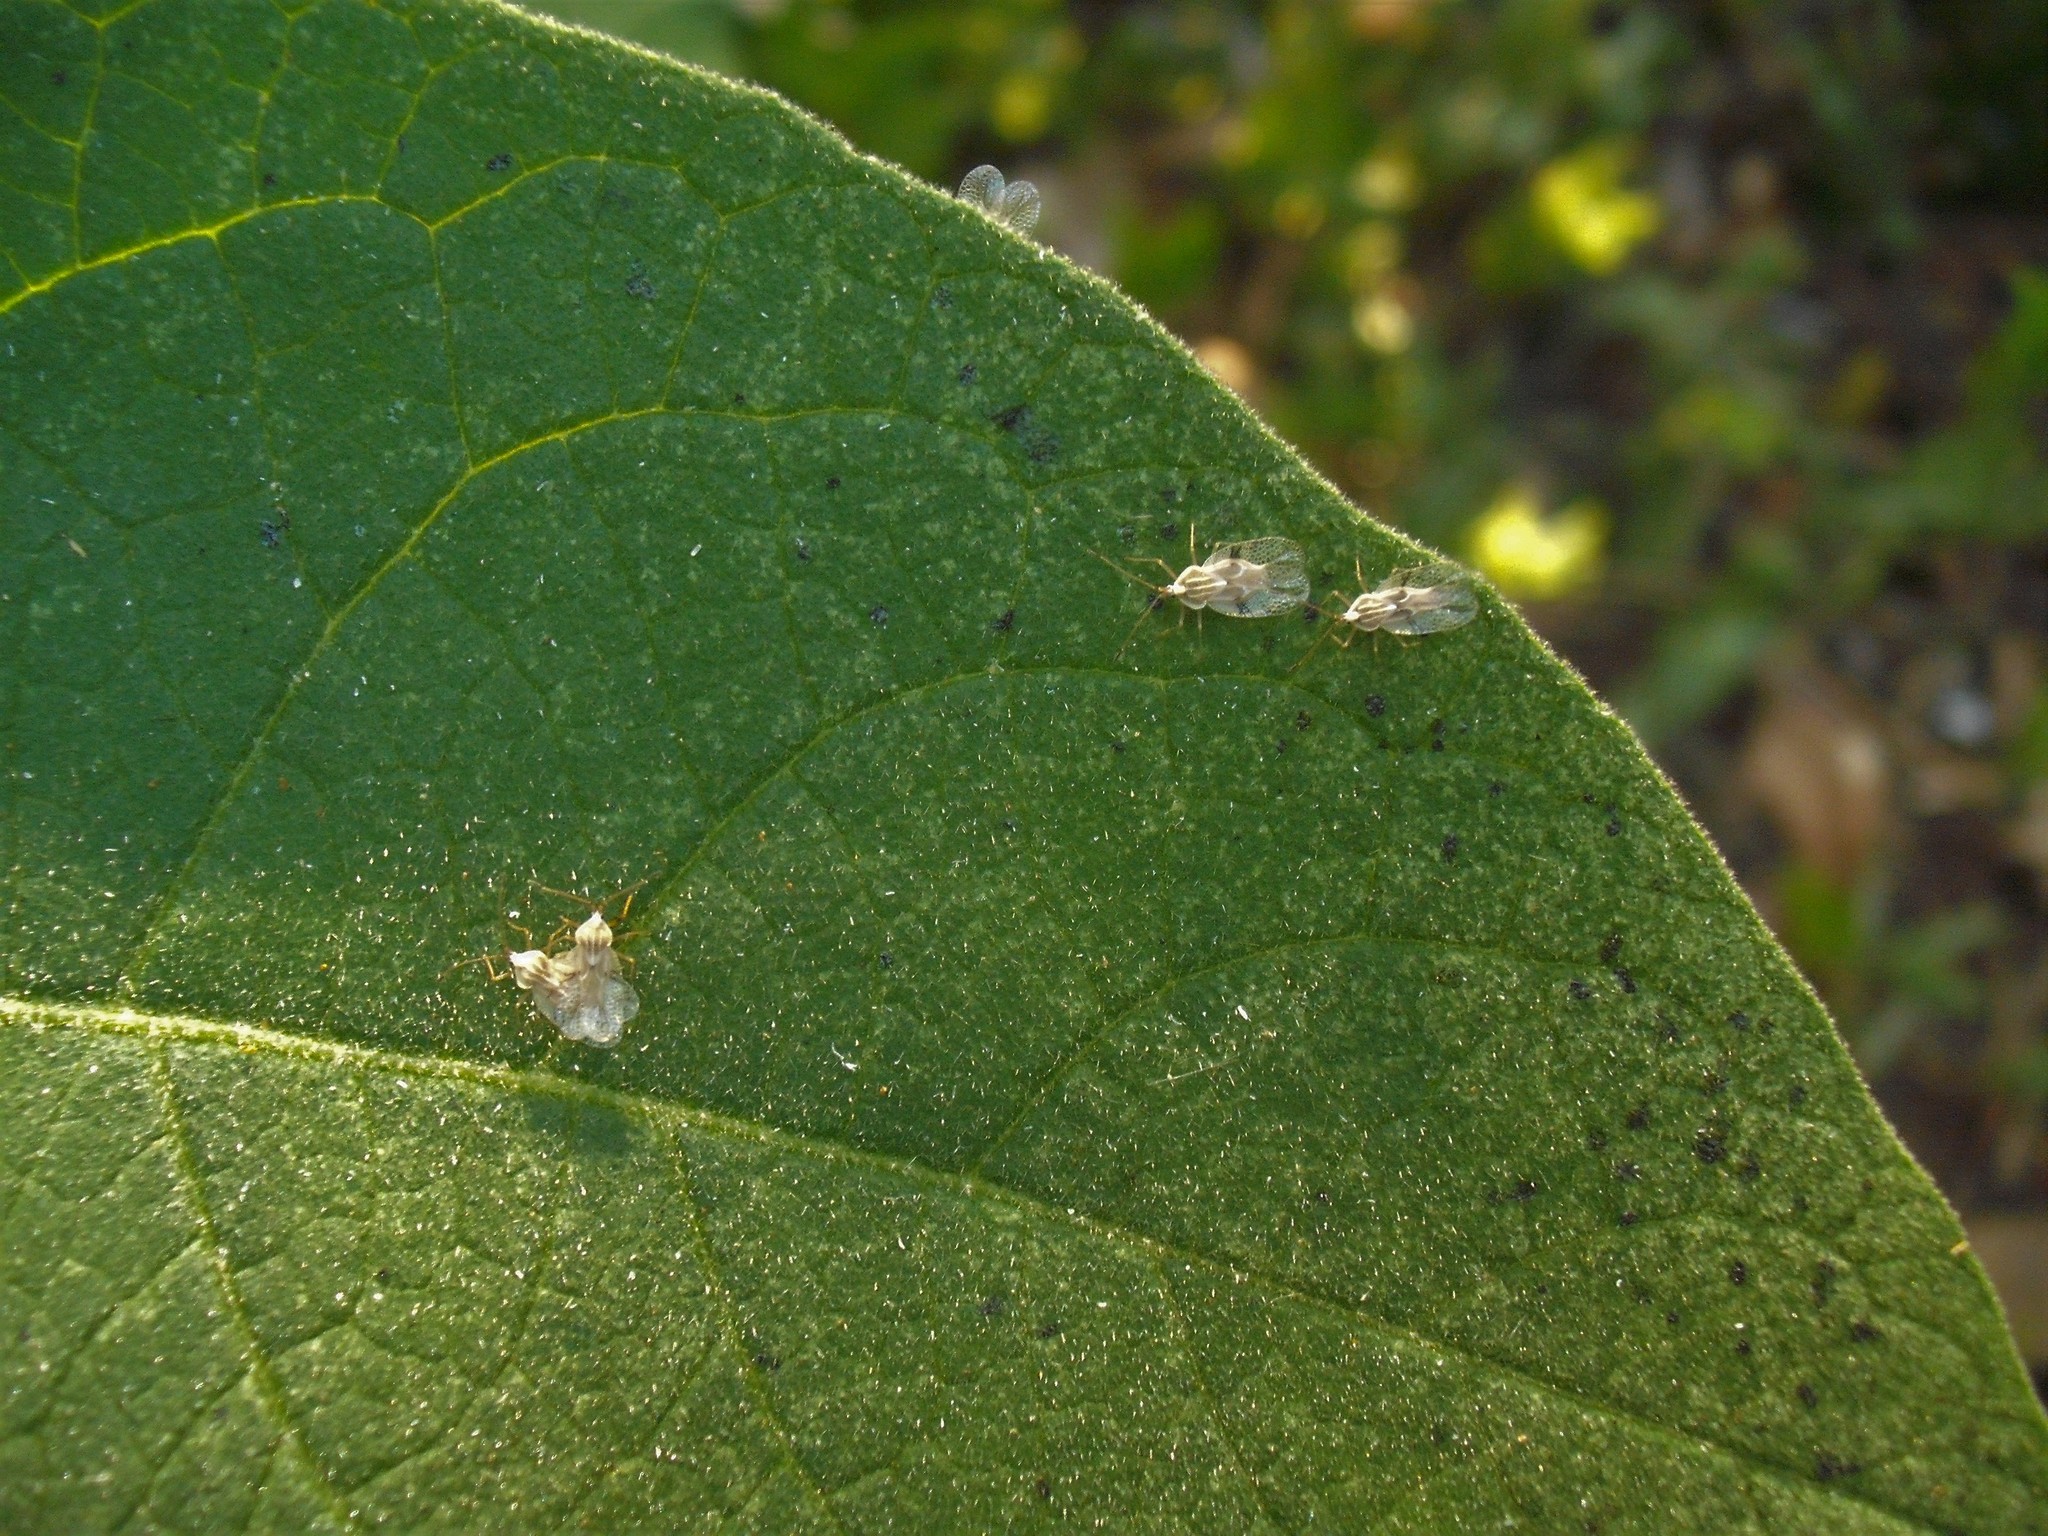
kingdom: Animalia
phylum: Arthropoda
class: Insecta
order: Hemiptera
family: Tingidae
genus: Gargaphia
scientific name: Gargaphia decoris
